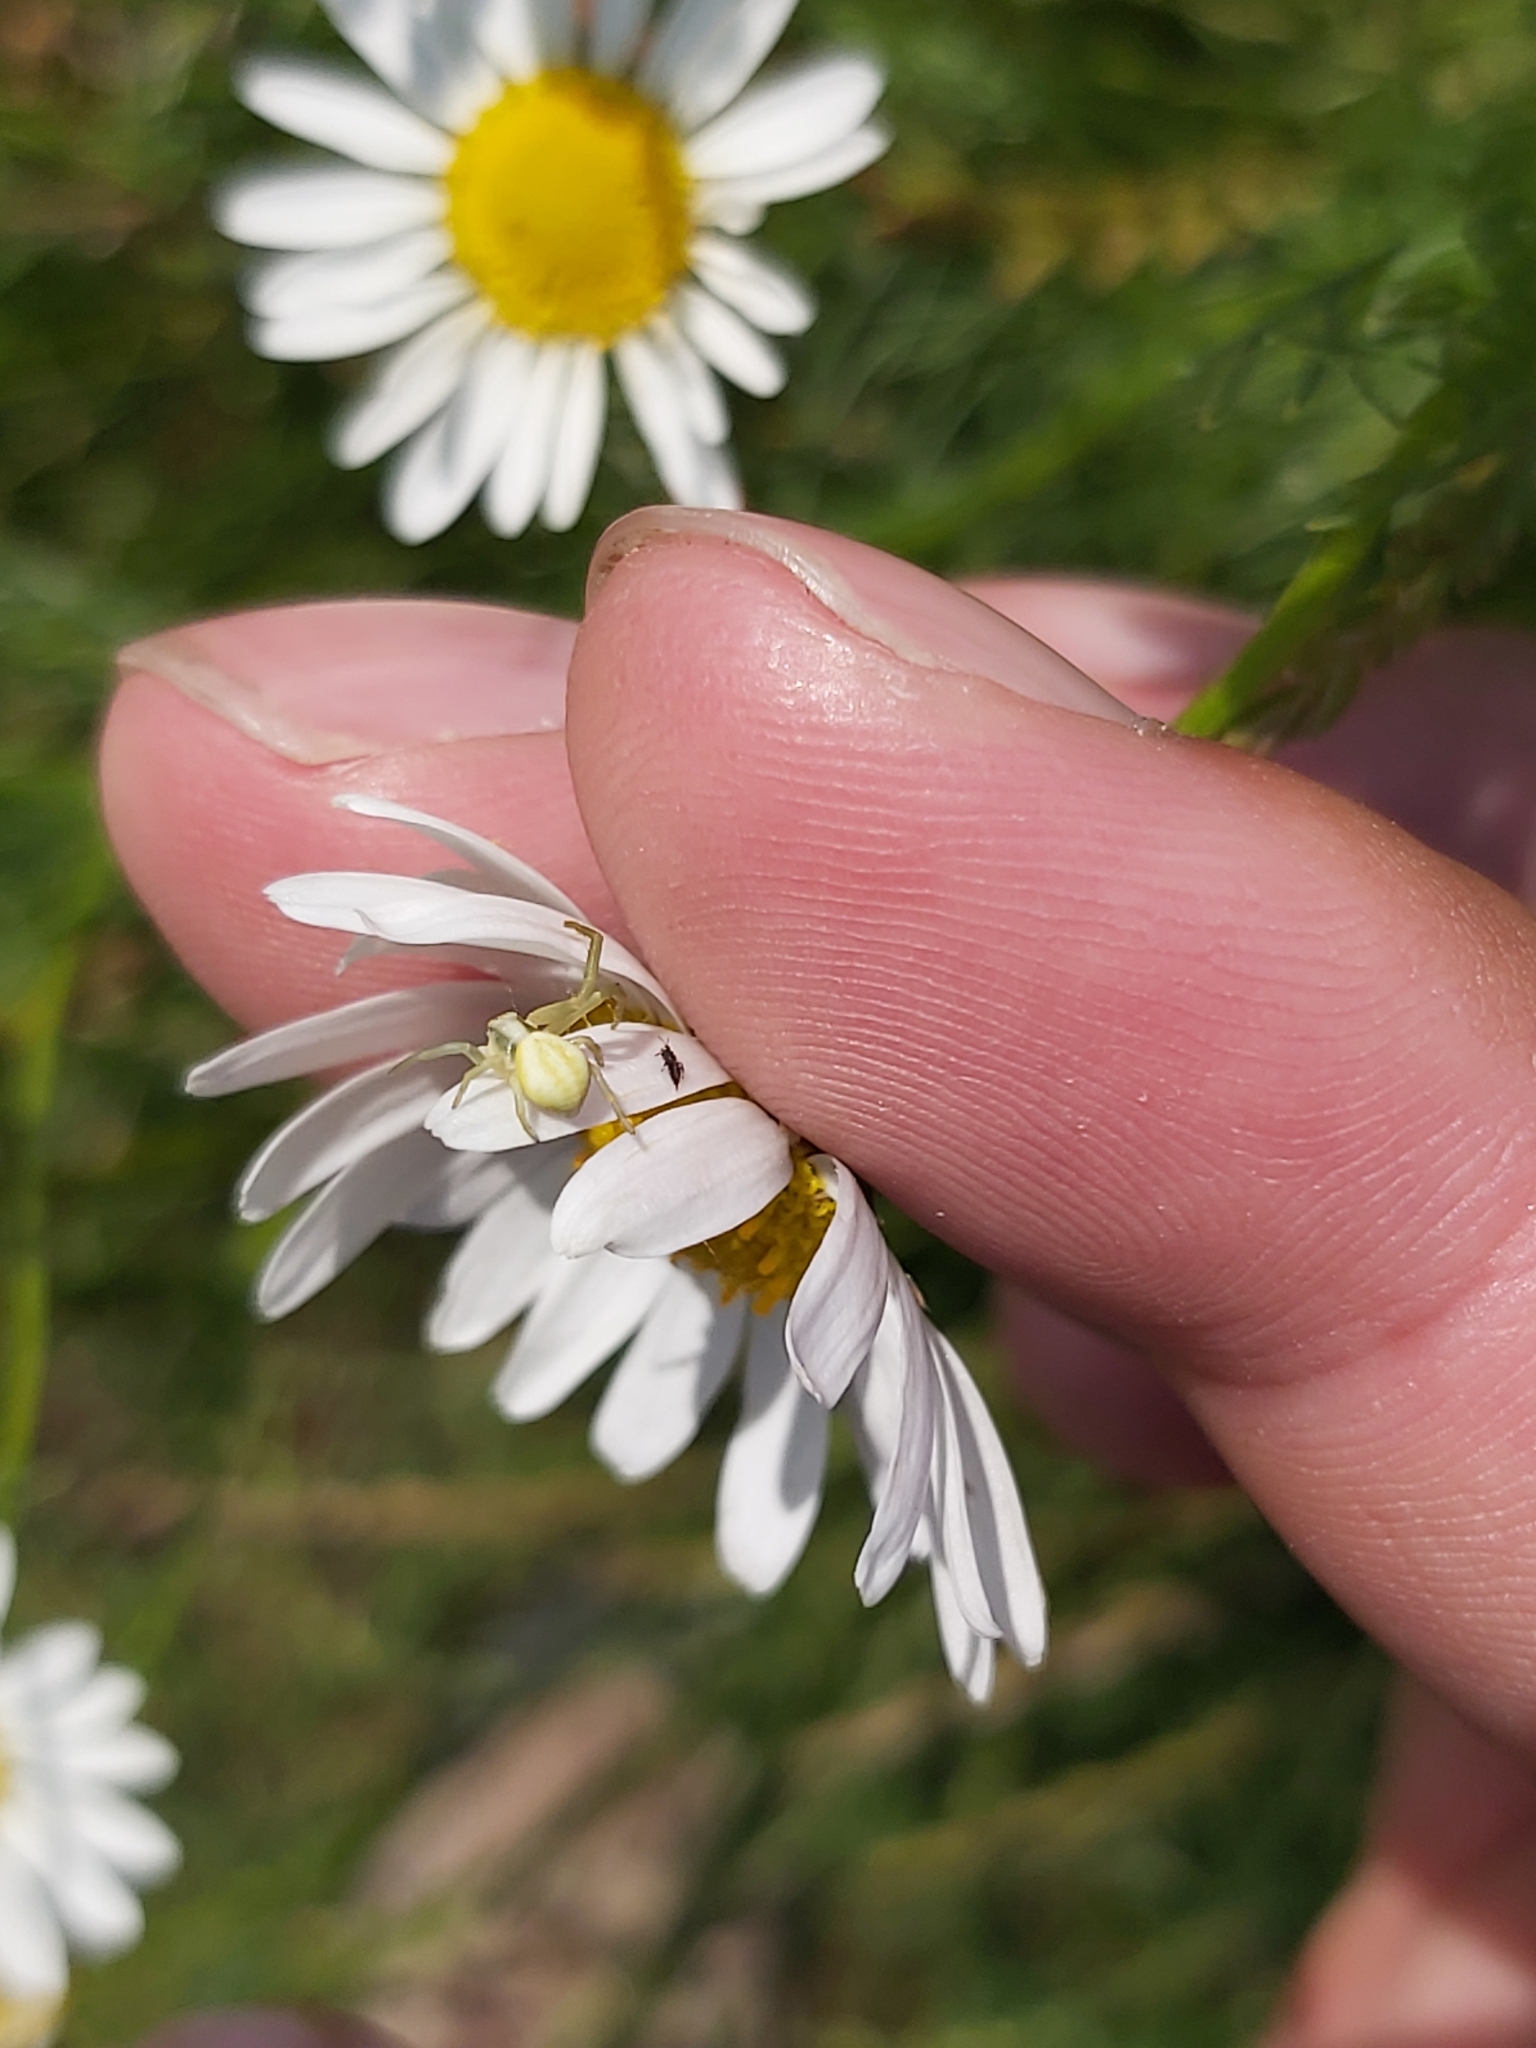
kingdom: Animalia
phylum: Arthropoda
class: Arachnida
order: Araneae
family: Thomisidae
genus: Misumena
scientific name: Misumena vatia
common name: Goldenrod crab spider
